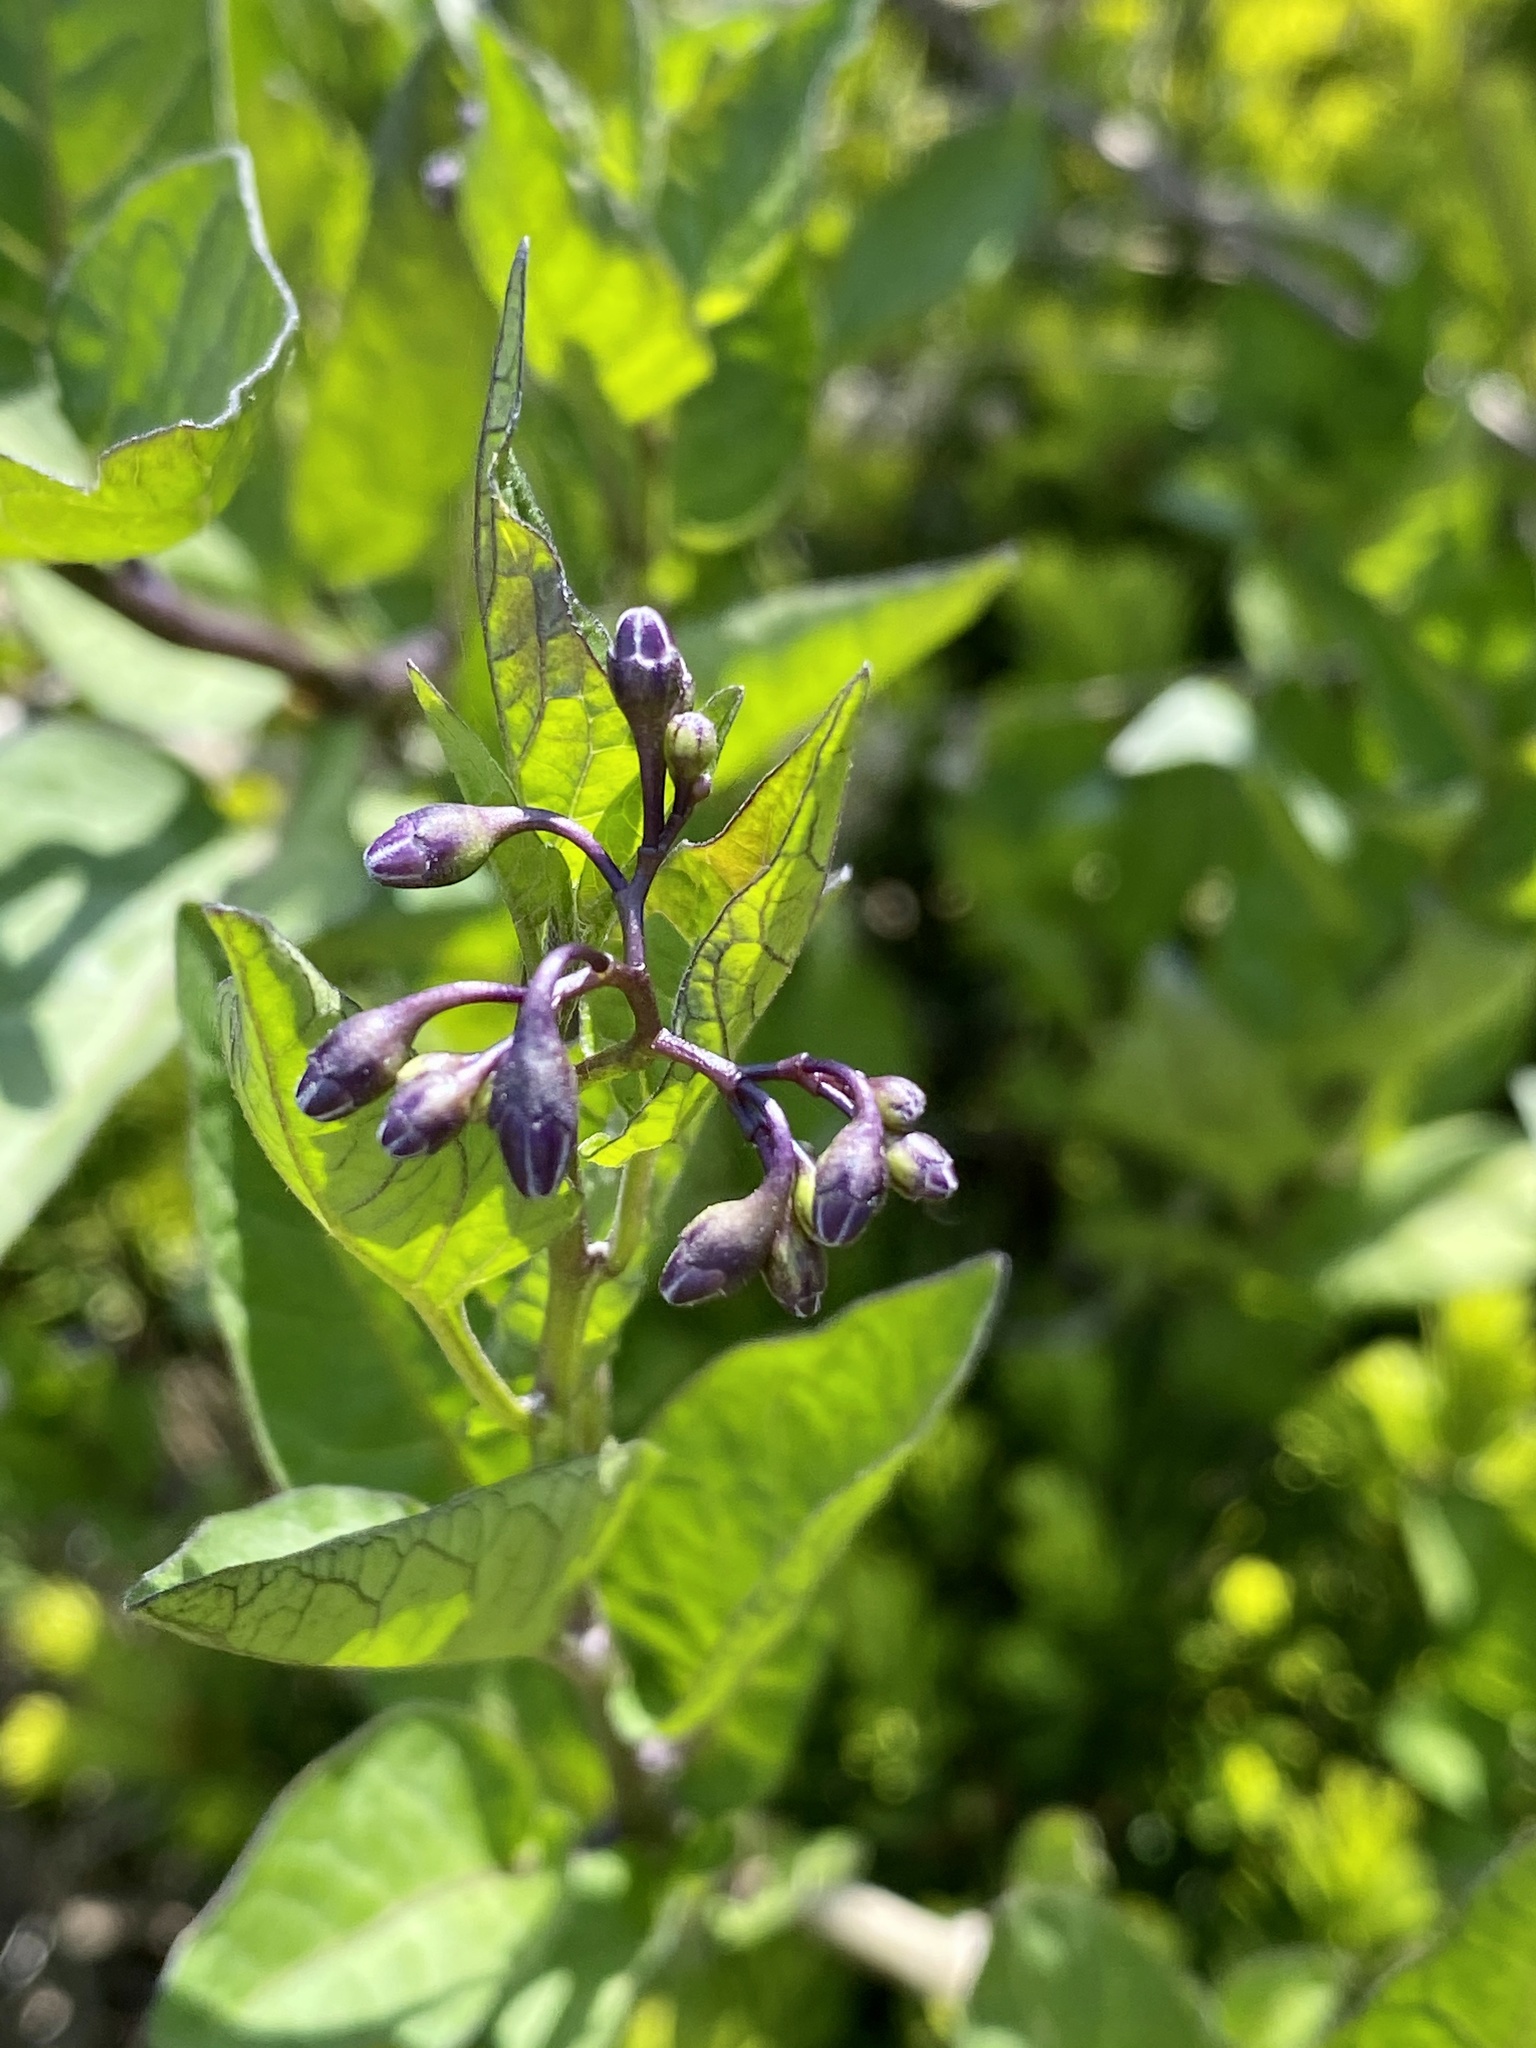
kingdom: Plantae
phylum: Tracheophyta
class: Magnoliopsida
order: Solanales
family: Solanaceae
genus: Solanum
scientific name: Solanum dulcamara
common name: Climbing nightshade
